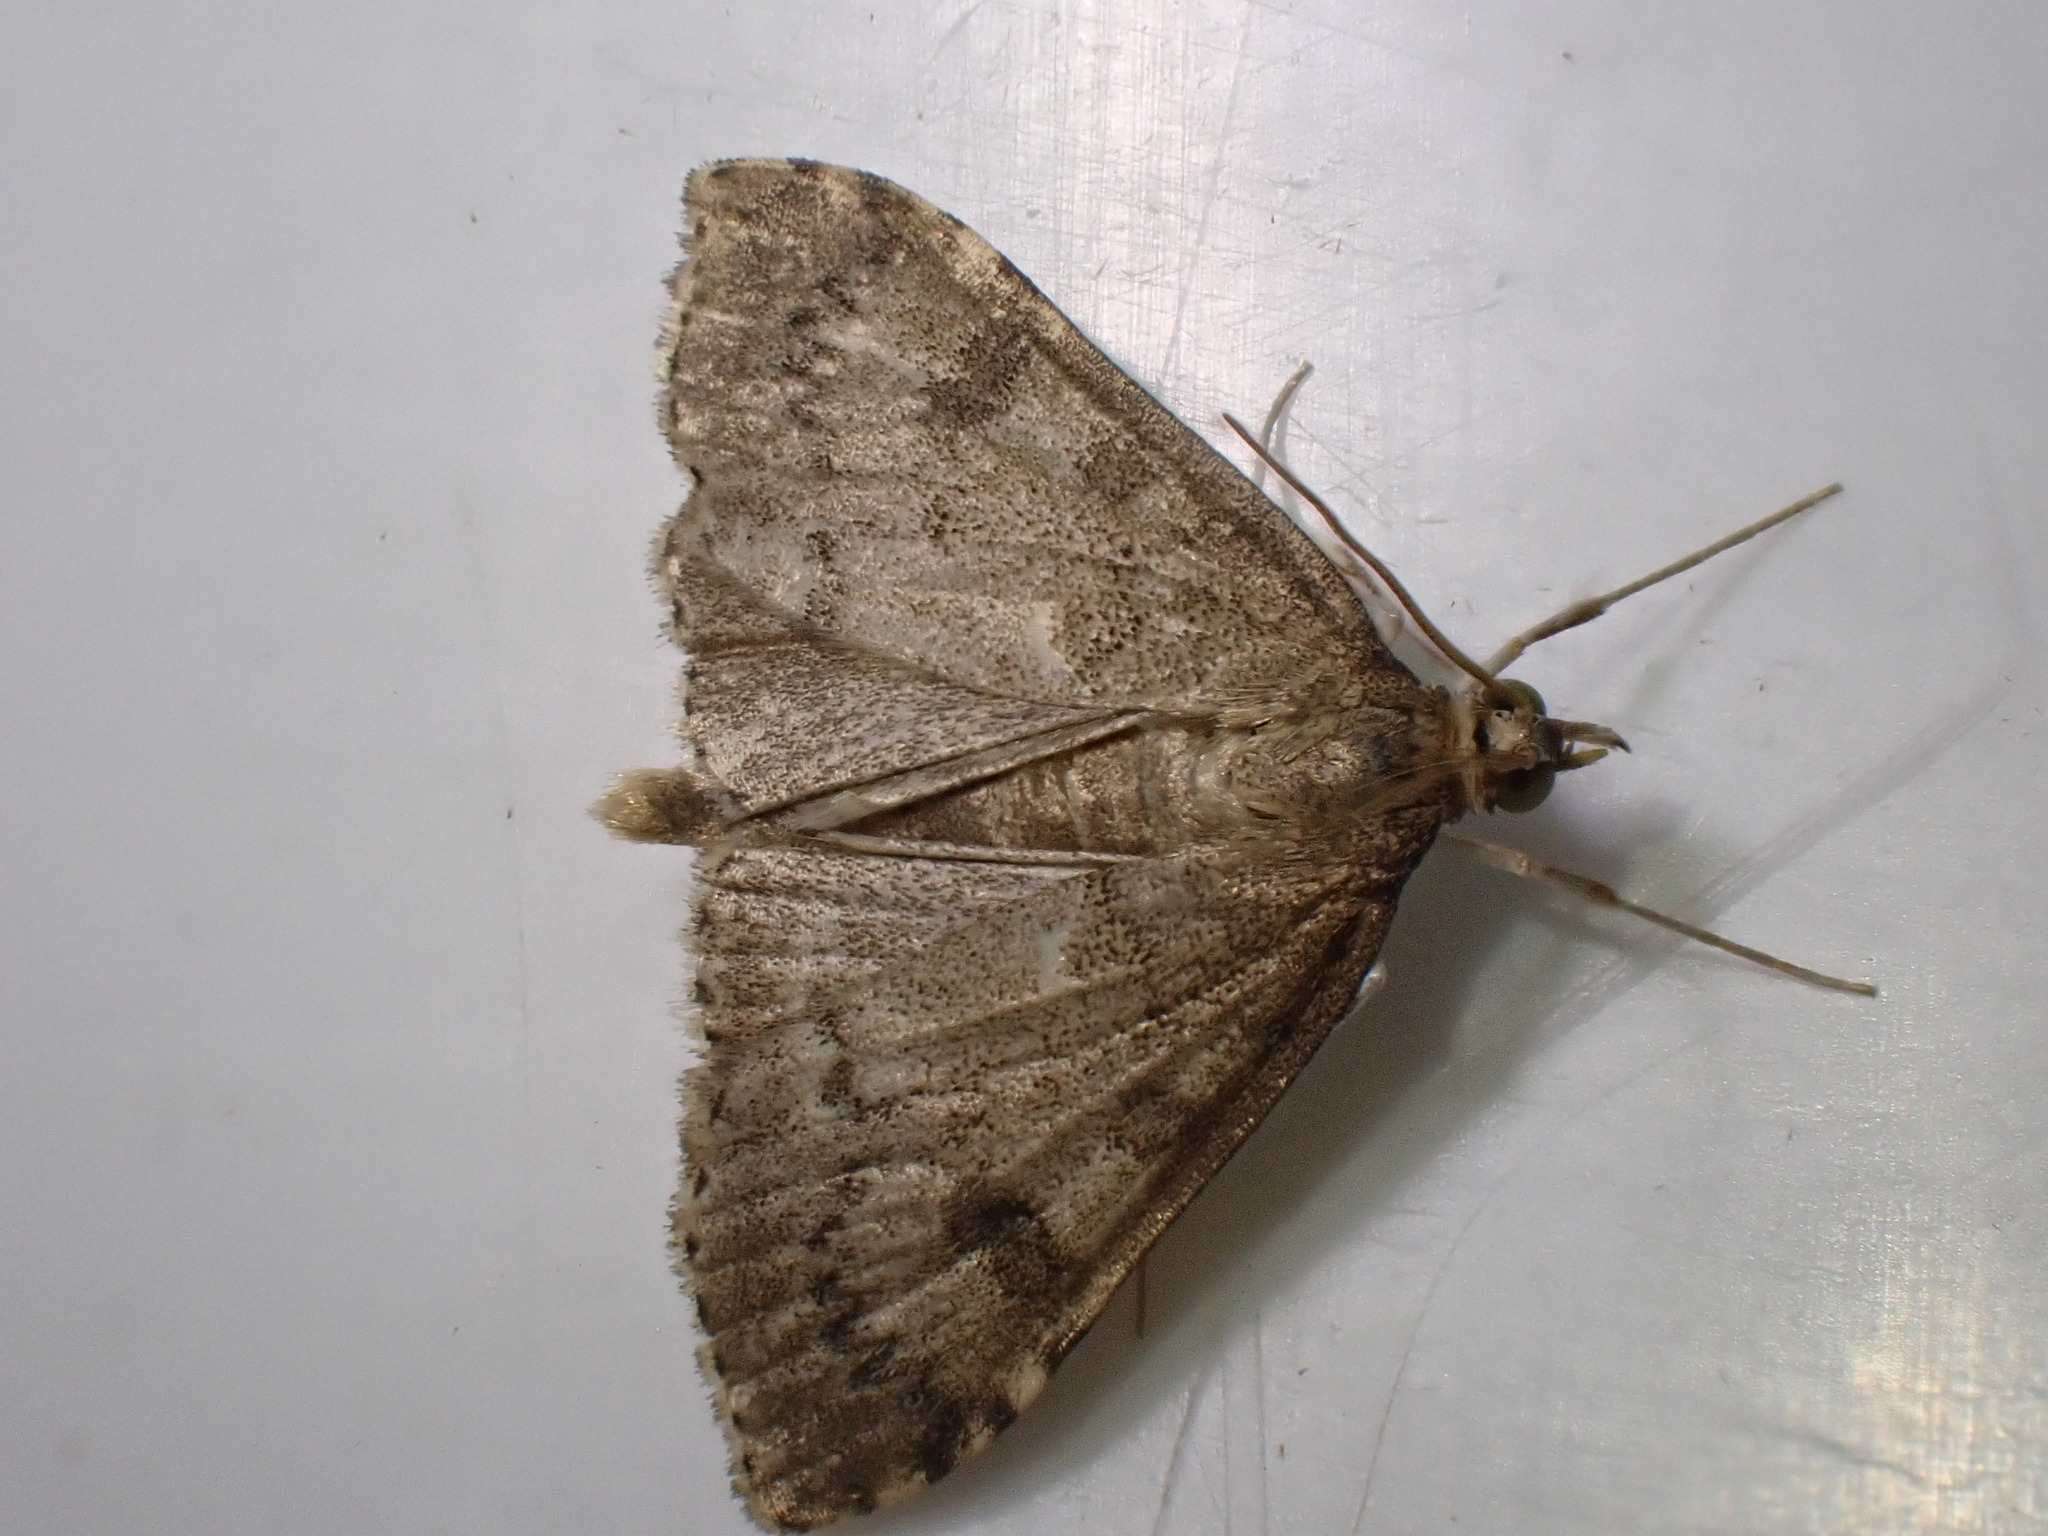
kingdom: Animalia
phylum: Arthropoda
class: Insecta
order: Lepidoptera
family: Crambidae
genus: Udea
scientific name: Udea prunalis
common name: Dusky pearl
